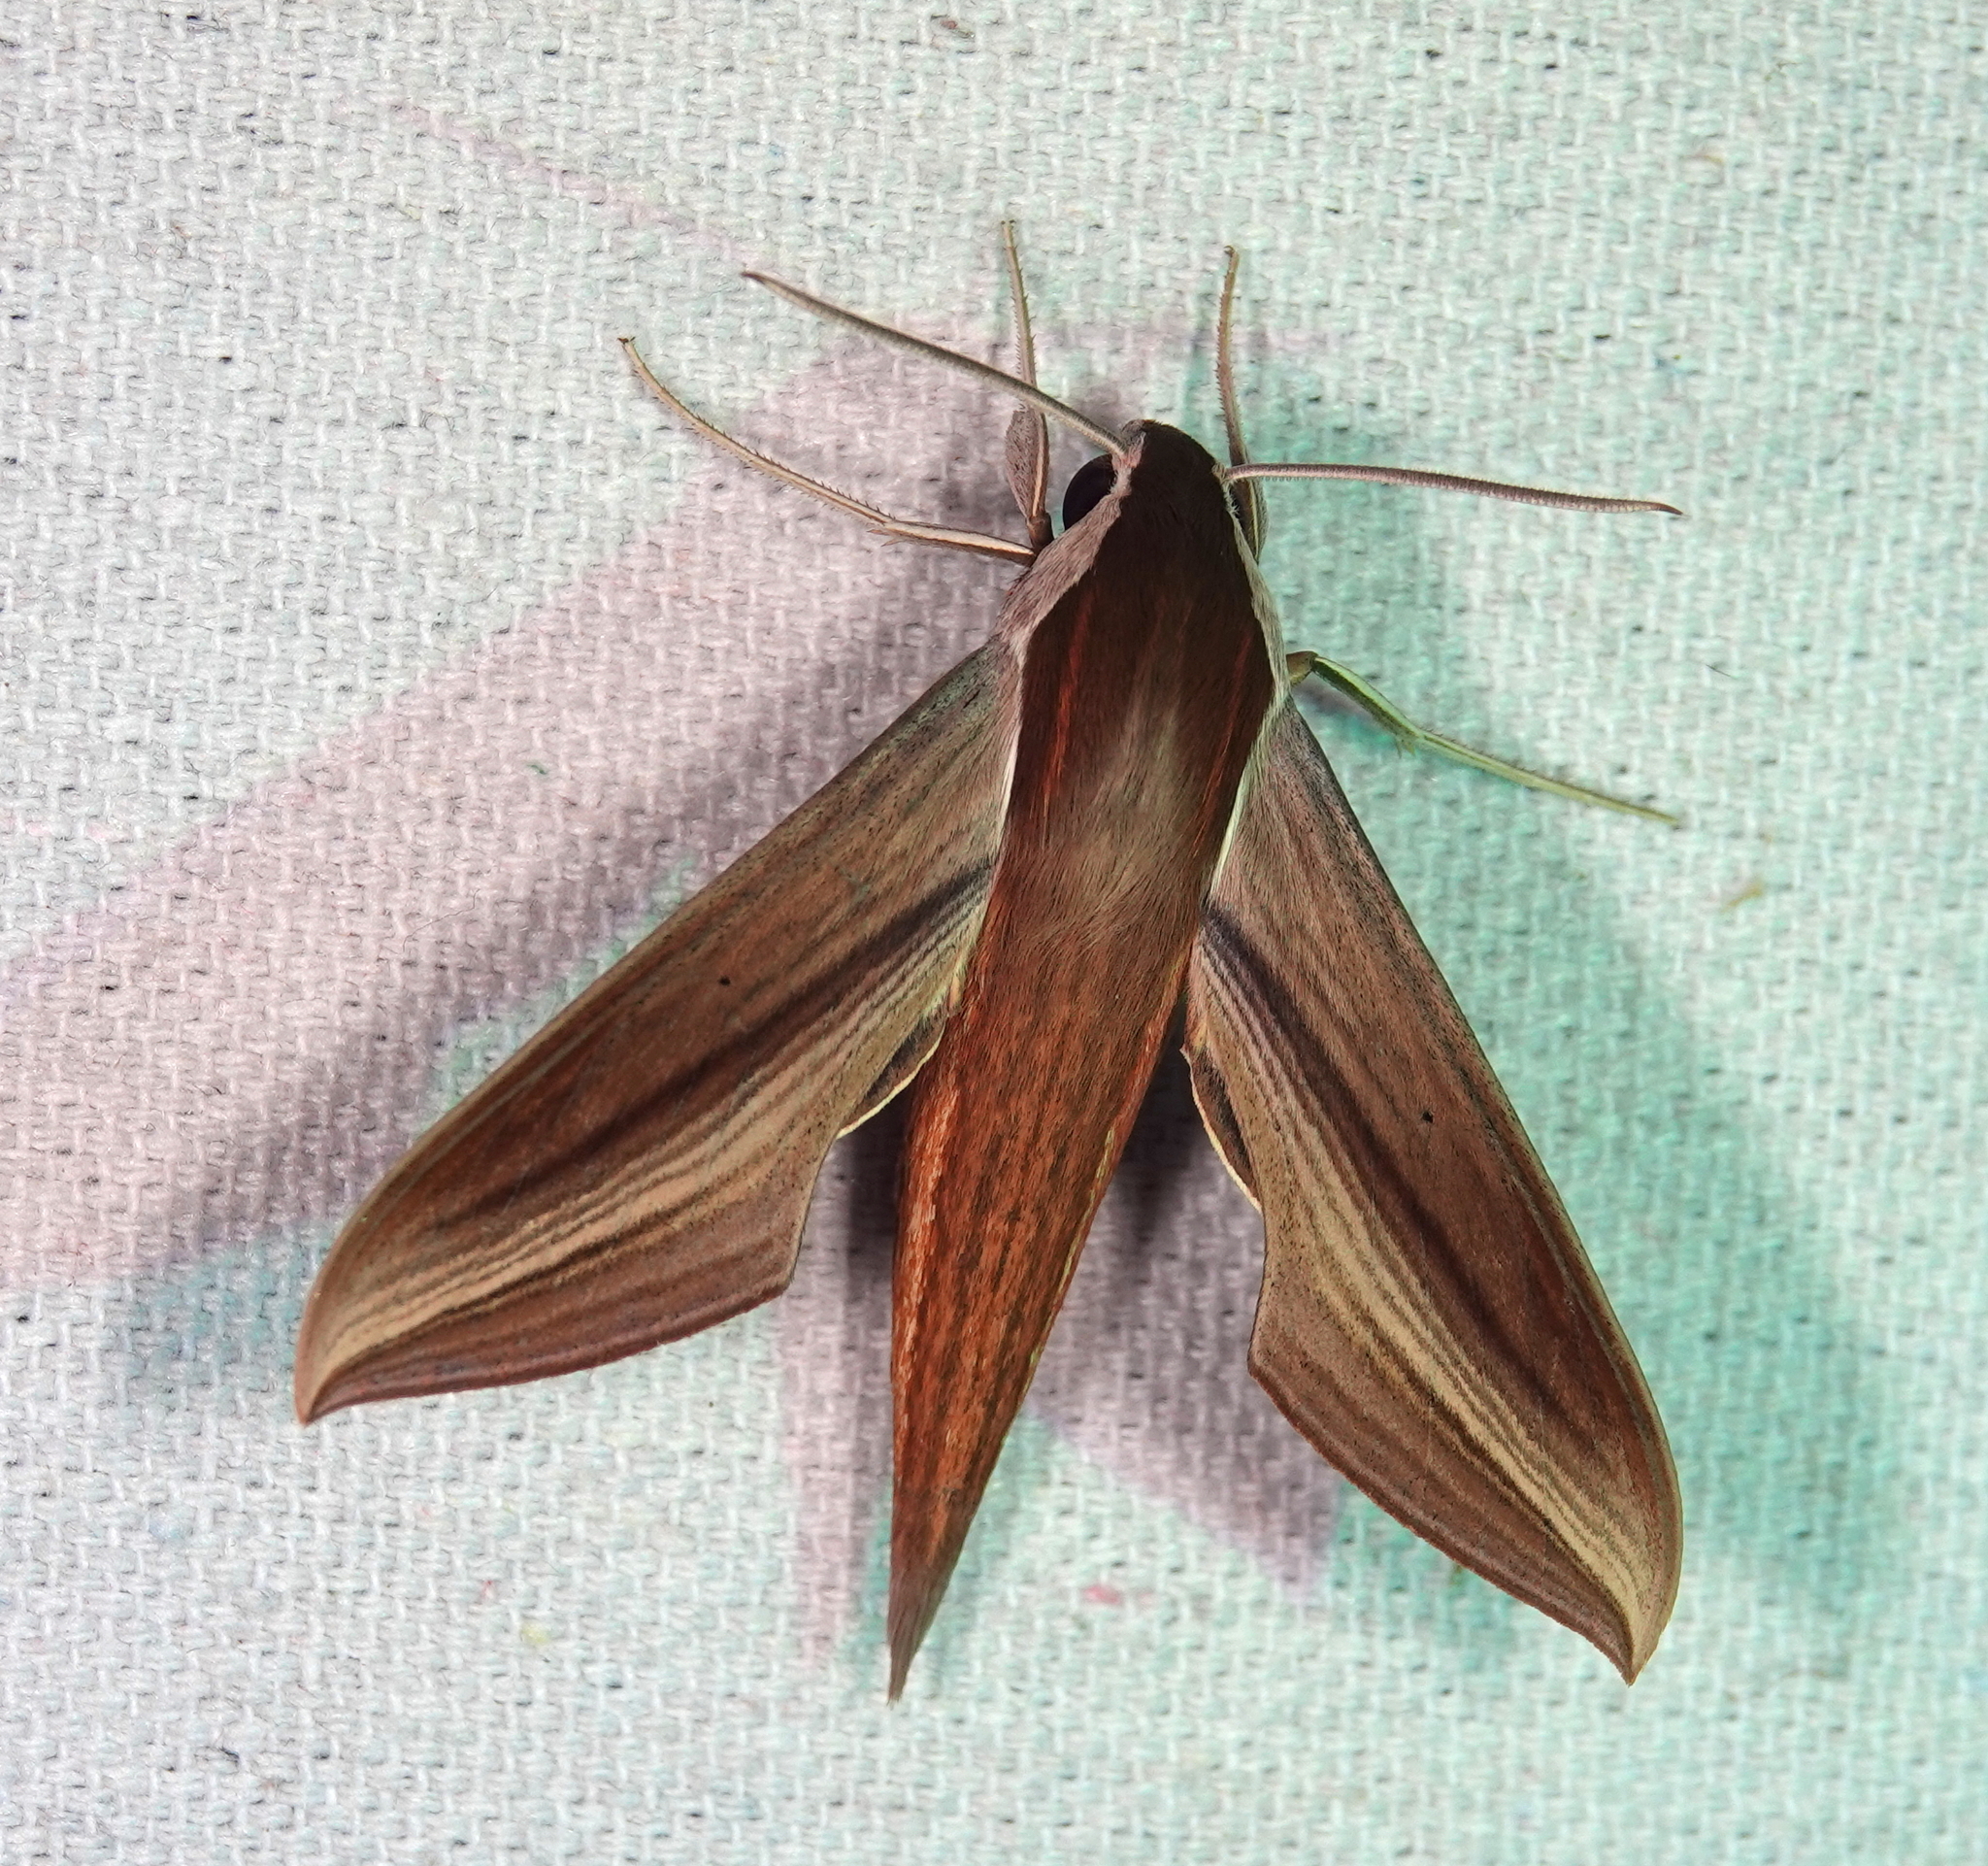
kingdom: Animalia
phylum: Arthropoda
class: Insecta
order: Lepidoptera
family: Sphingidae
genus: Xylophanes
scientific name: Xylophanes tersa
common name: Tersa sphinx
